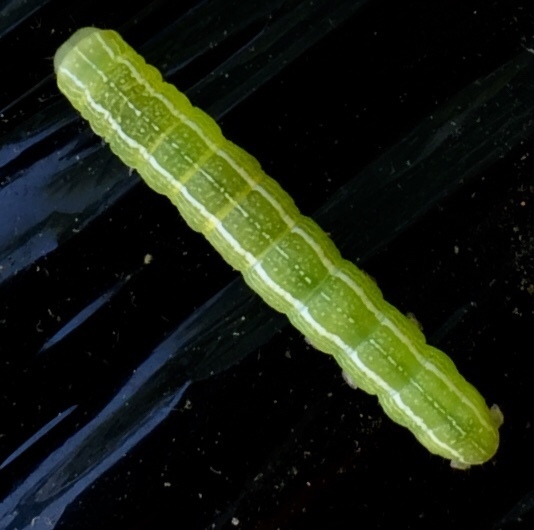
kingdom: Animalia
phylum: Arthropoda
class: Insecta
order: Lepidoptera
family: Noctuidae
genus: Kocakina
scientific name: Kocakina fidelis
